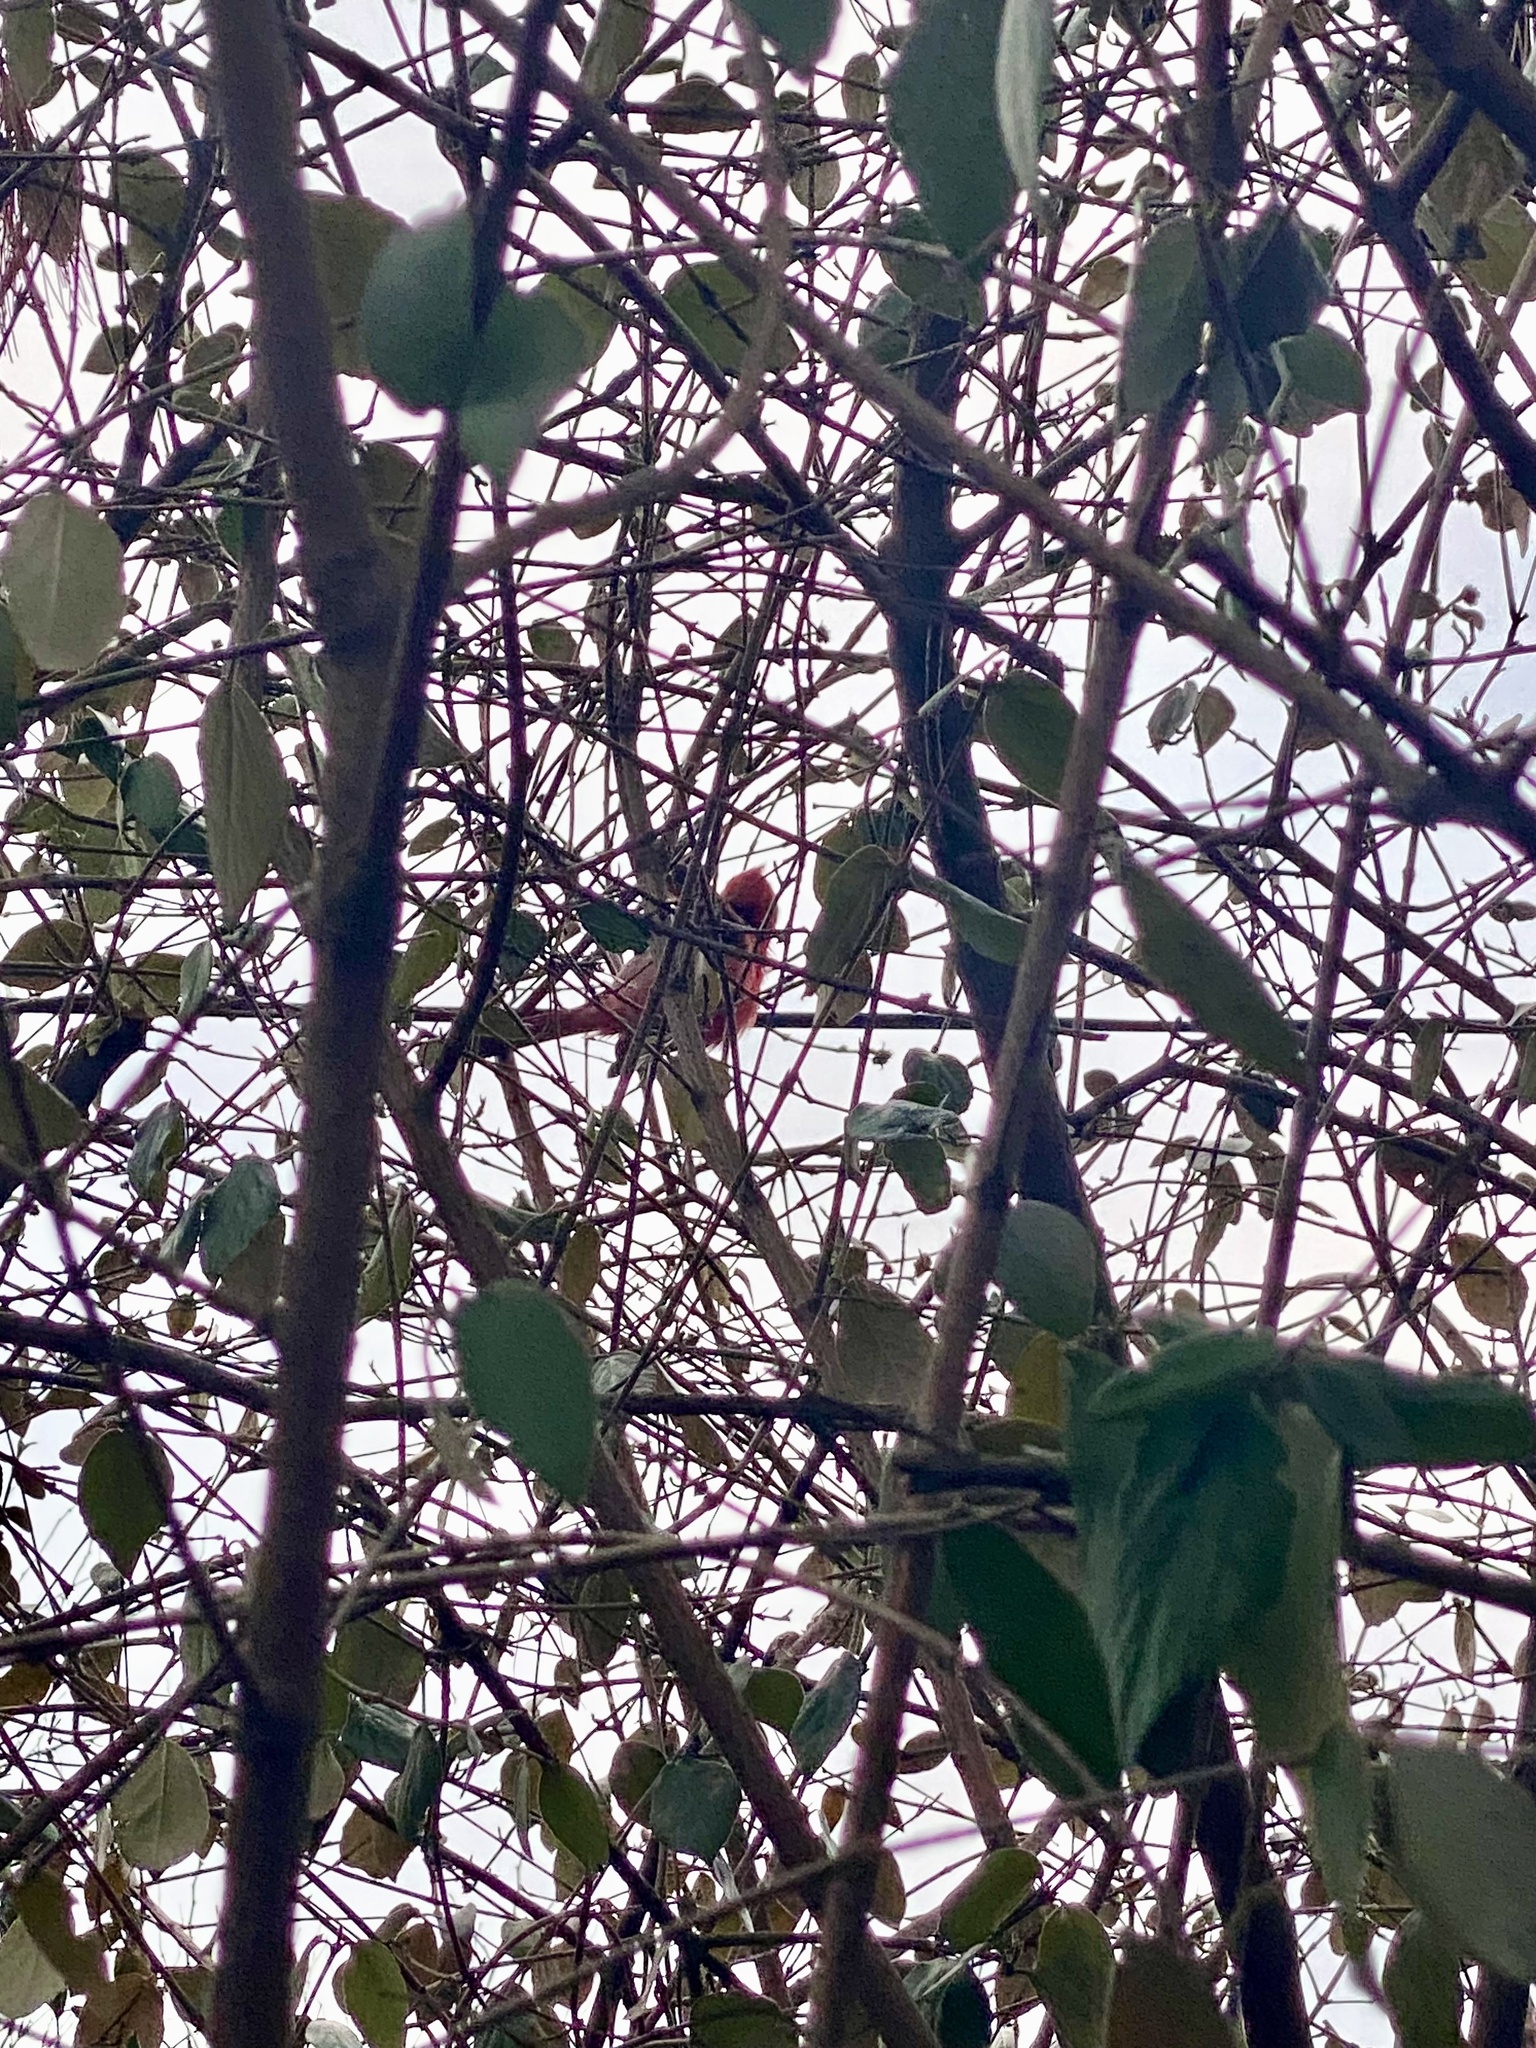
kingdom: Animalia
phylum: Chordata
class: Aves
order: Passeriformes
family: Cardinalidae
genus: Cardinalis
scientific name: Cardinalis cardinalis
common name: Northern cardinal
